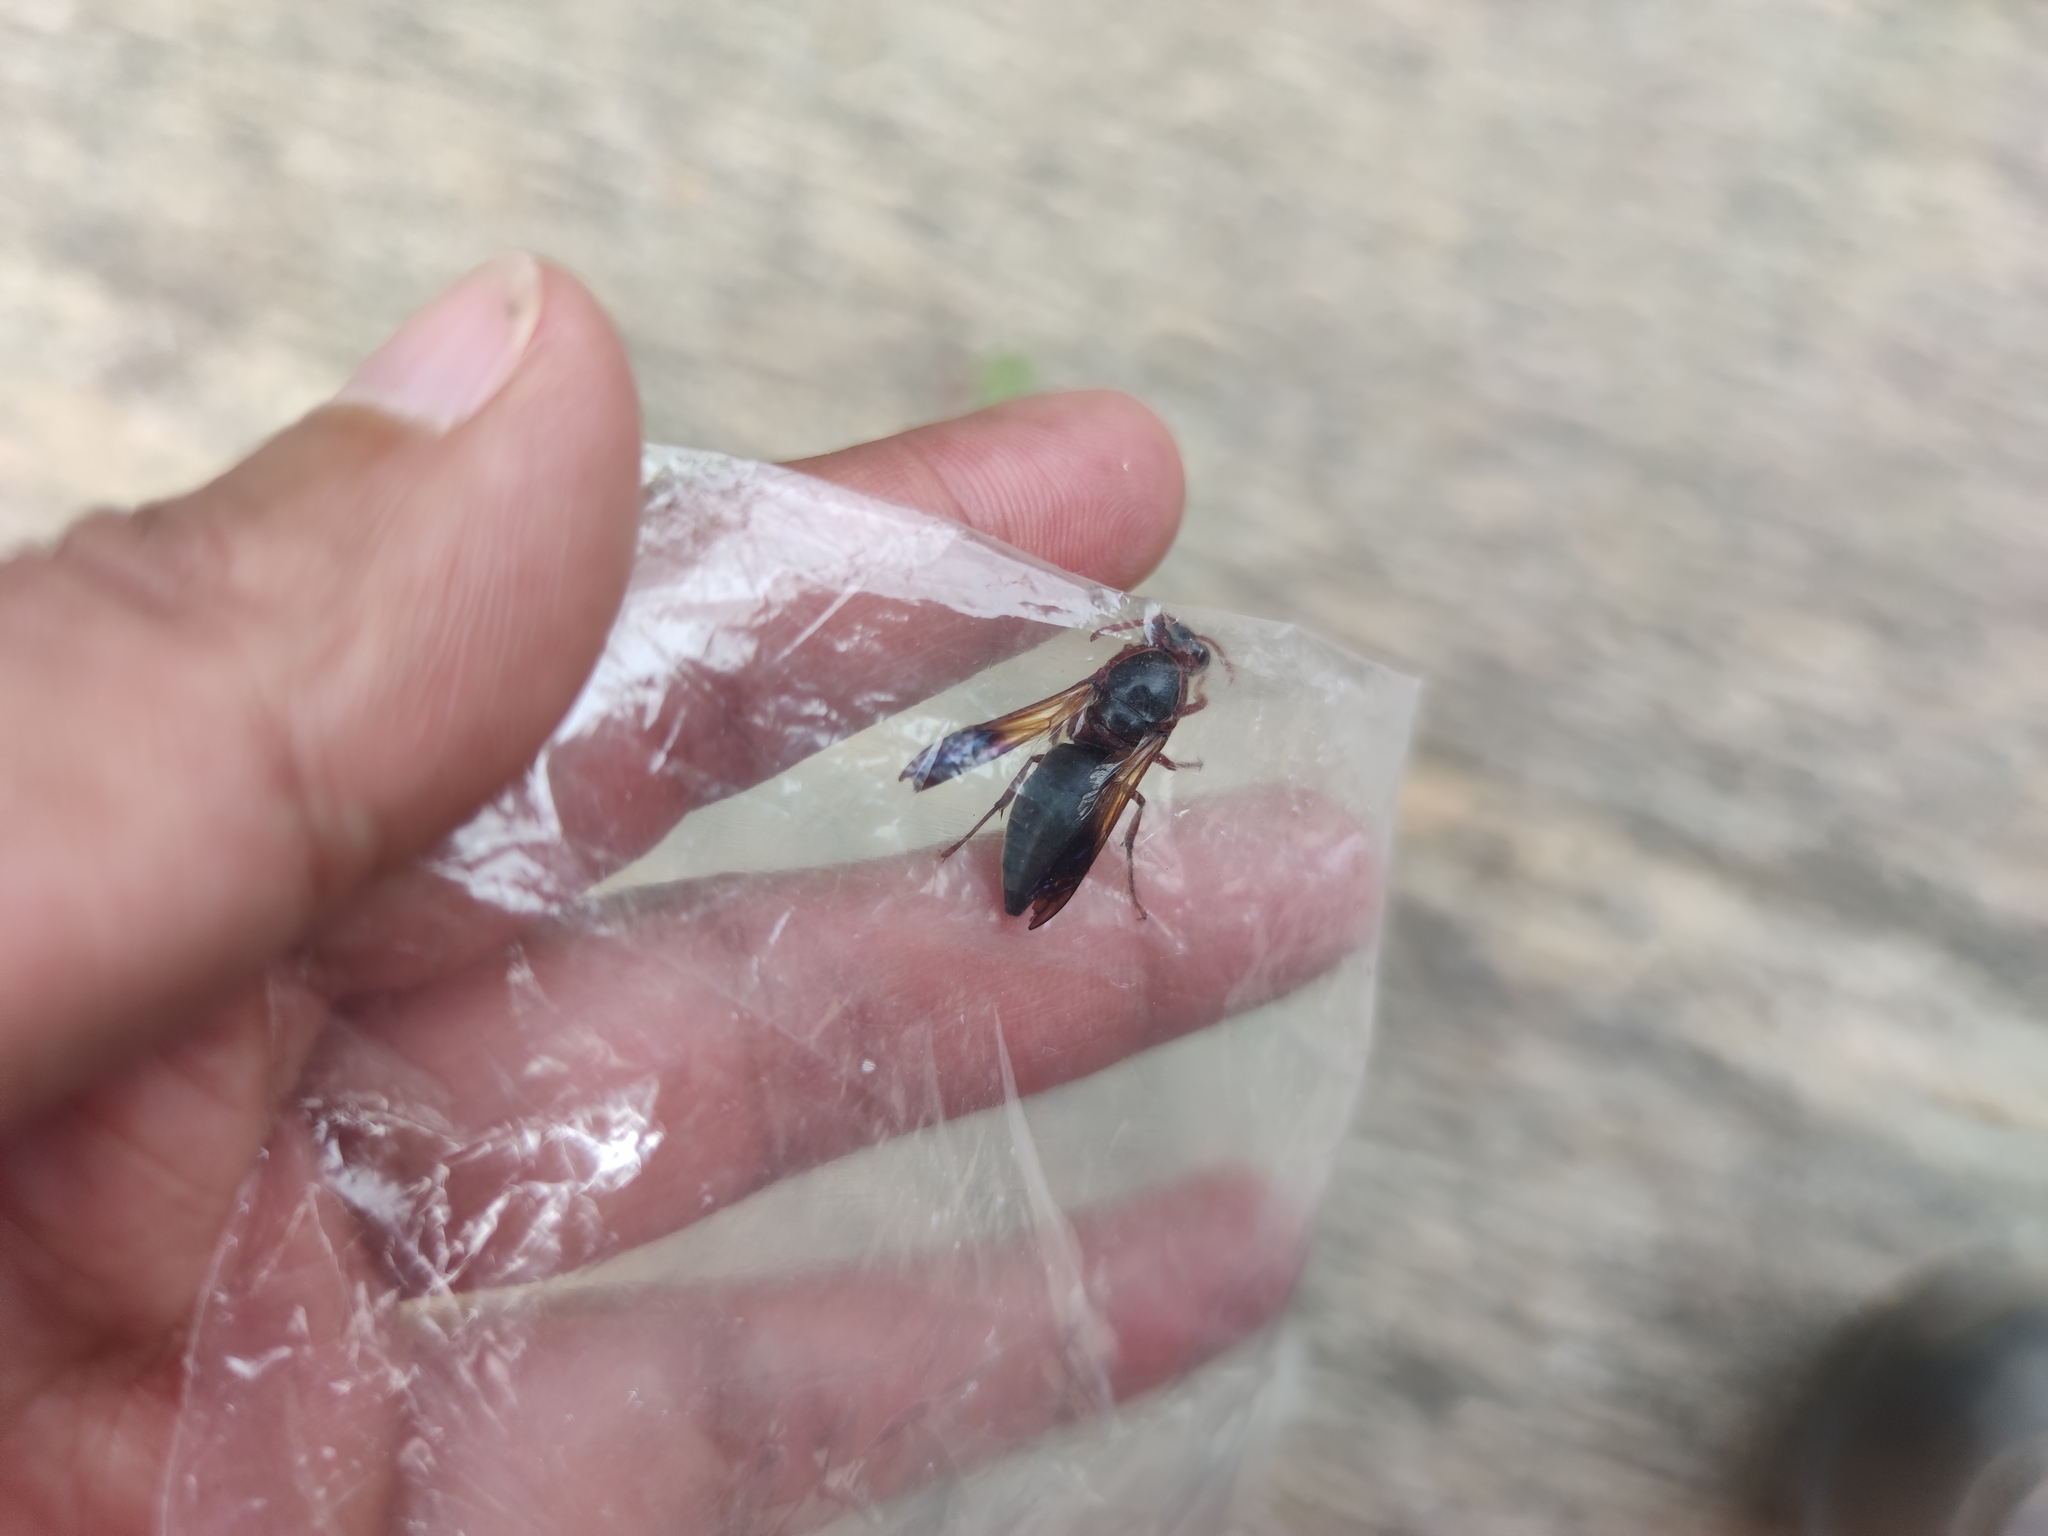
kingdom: Animalia
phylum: Arthropoda
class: Insecta
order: Hymenoptera
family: Eumenidae
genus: Rhynchium
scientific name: Rhynchium
